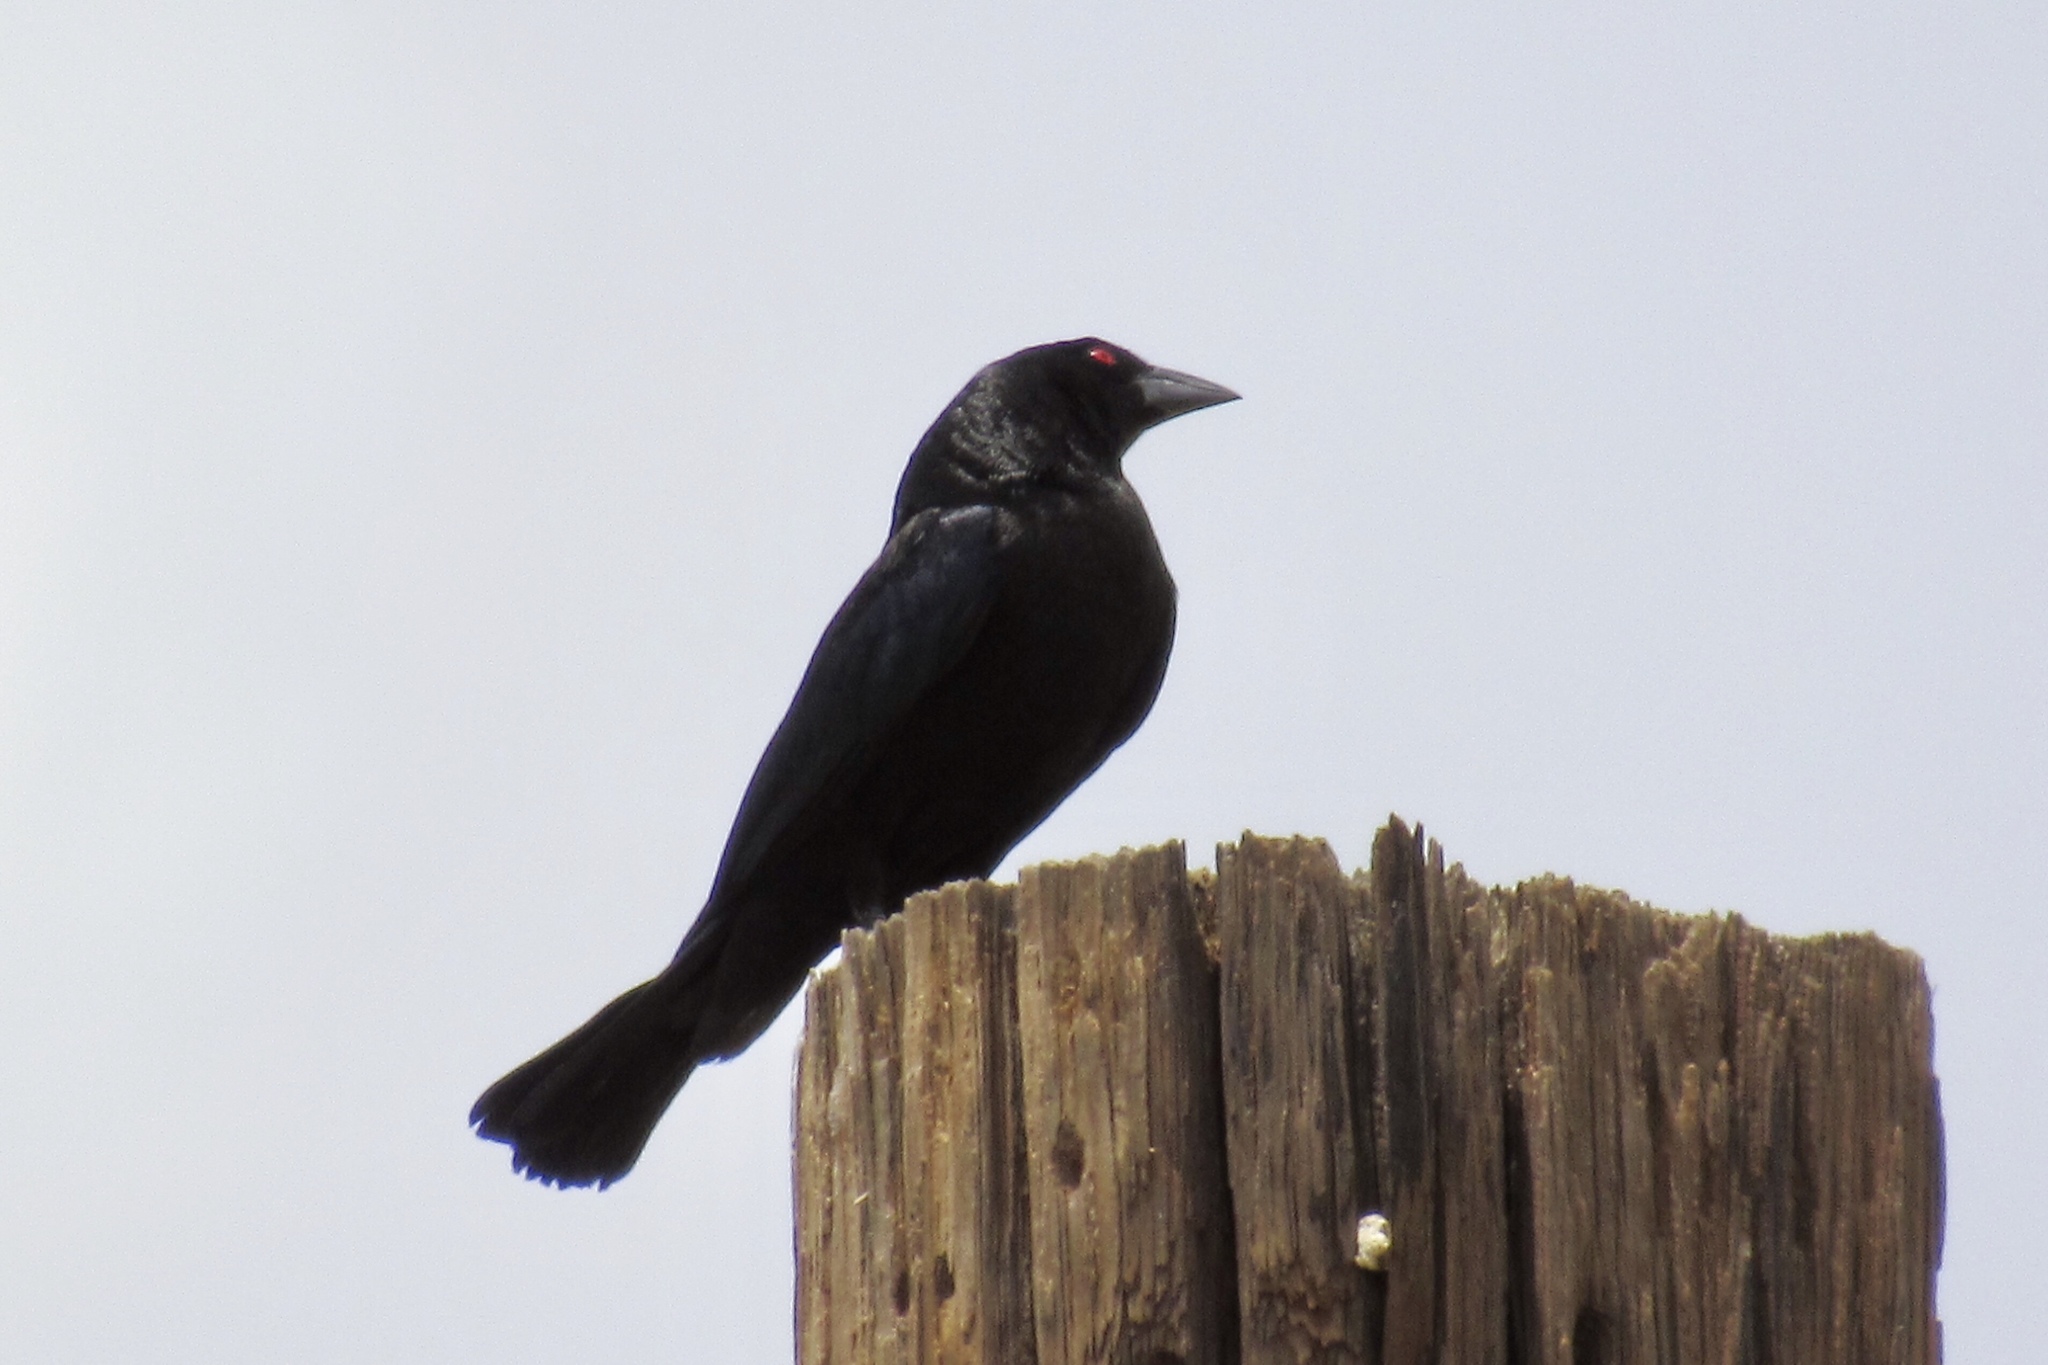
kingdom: Animalia
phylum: Chordata
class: Aves
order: Passeriformes
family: Icteridae
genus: Molothrus
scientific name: Molothrus aeneus
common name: Bronzed cowbird
